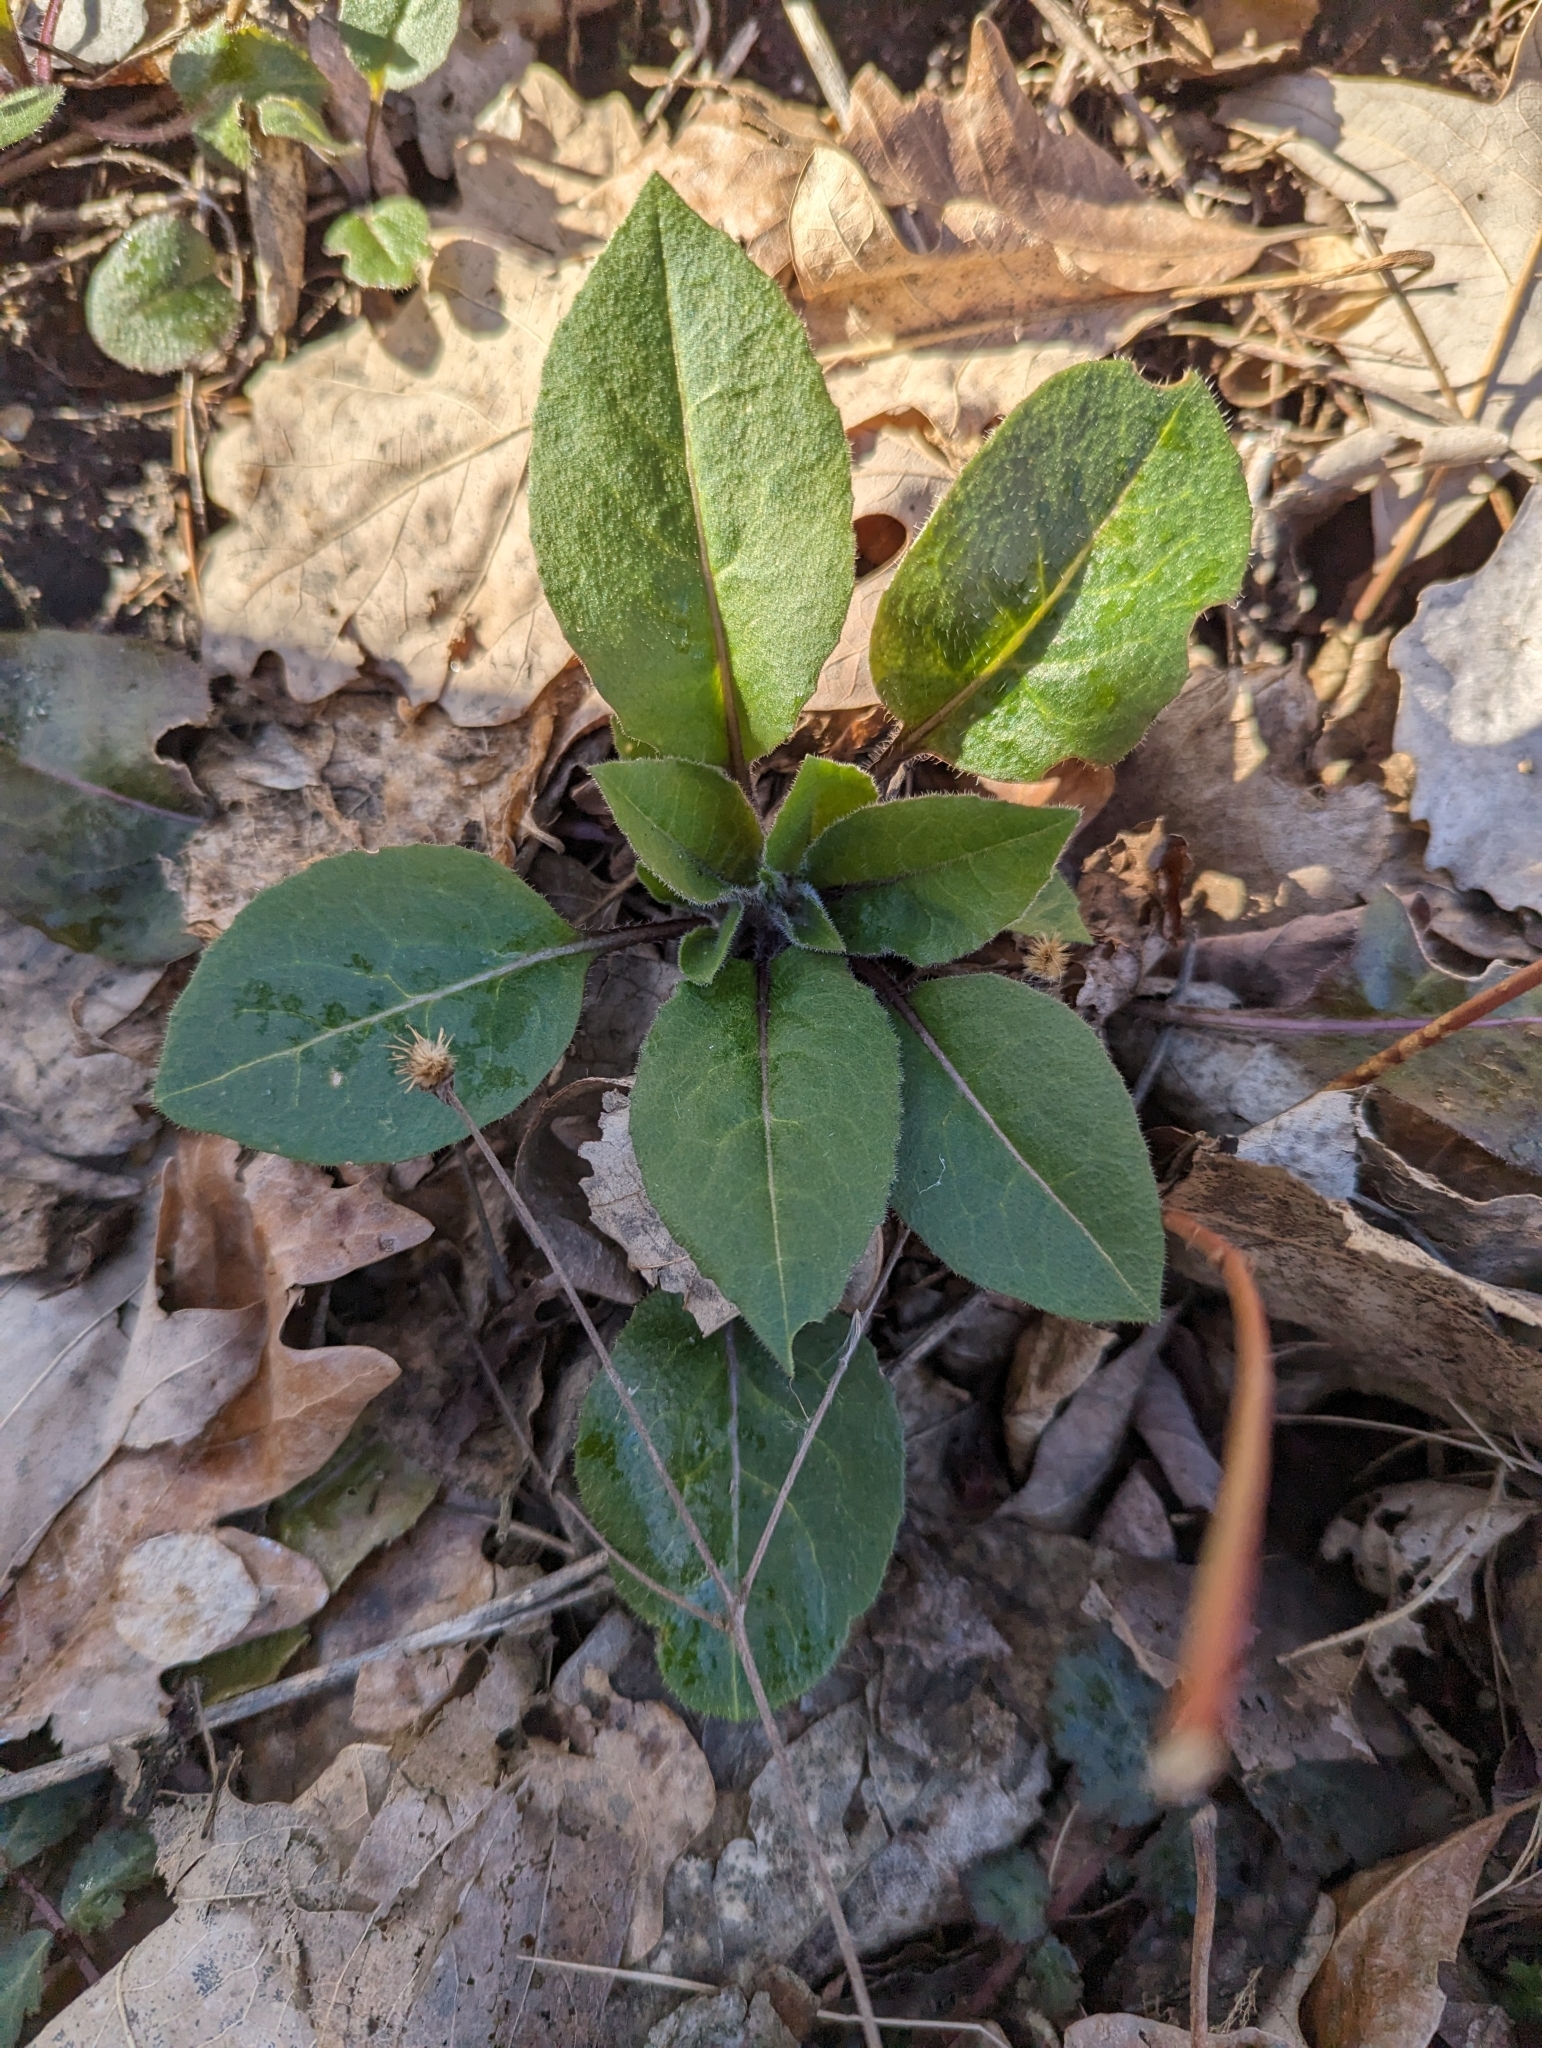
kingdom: Plantae
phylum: Tracheophyta
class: Magnoliopsida
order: Brassicales
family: Brassicaceae
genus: Hesperis
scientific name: Hesperis matronalis
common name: Dame's-violet
